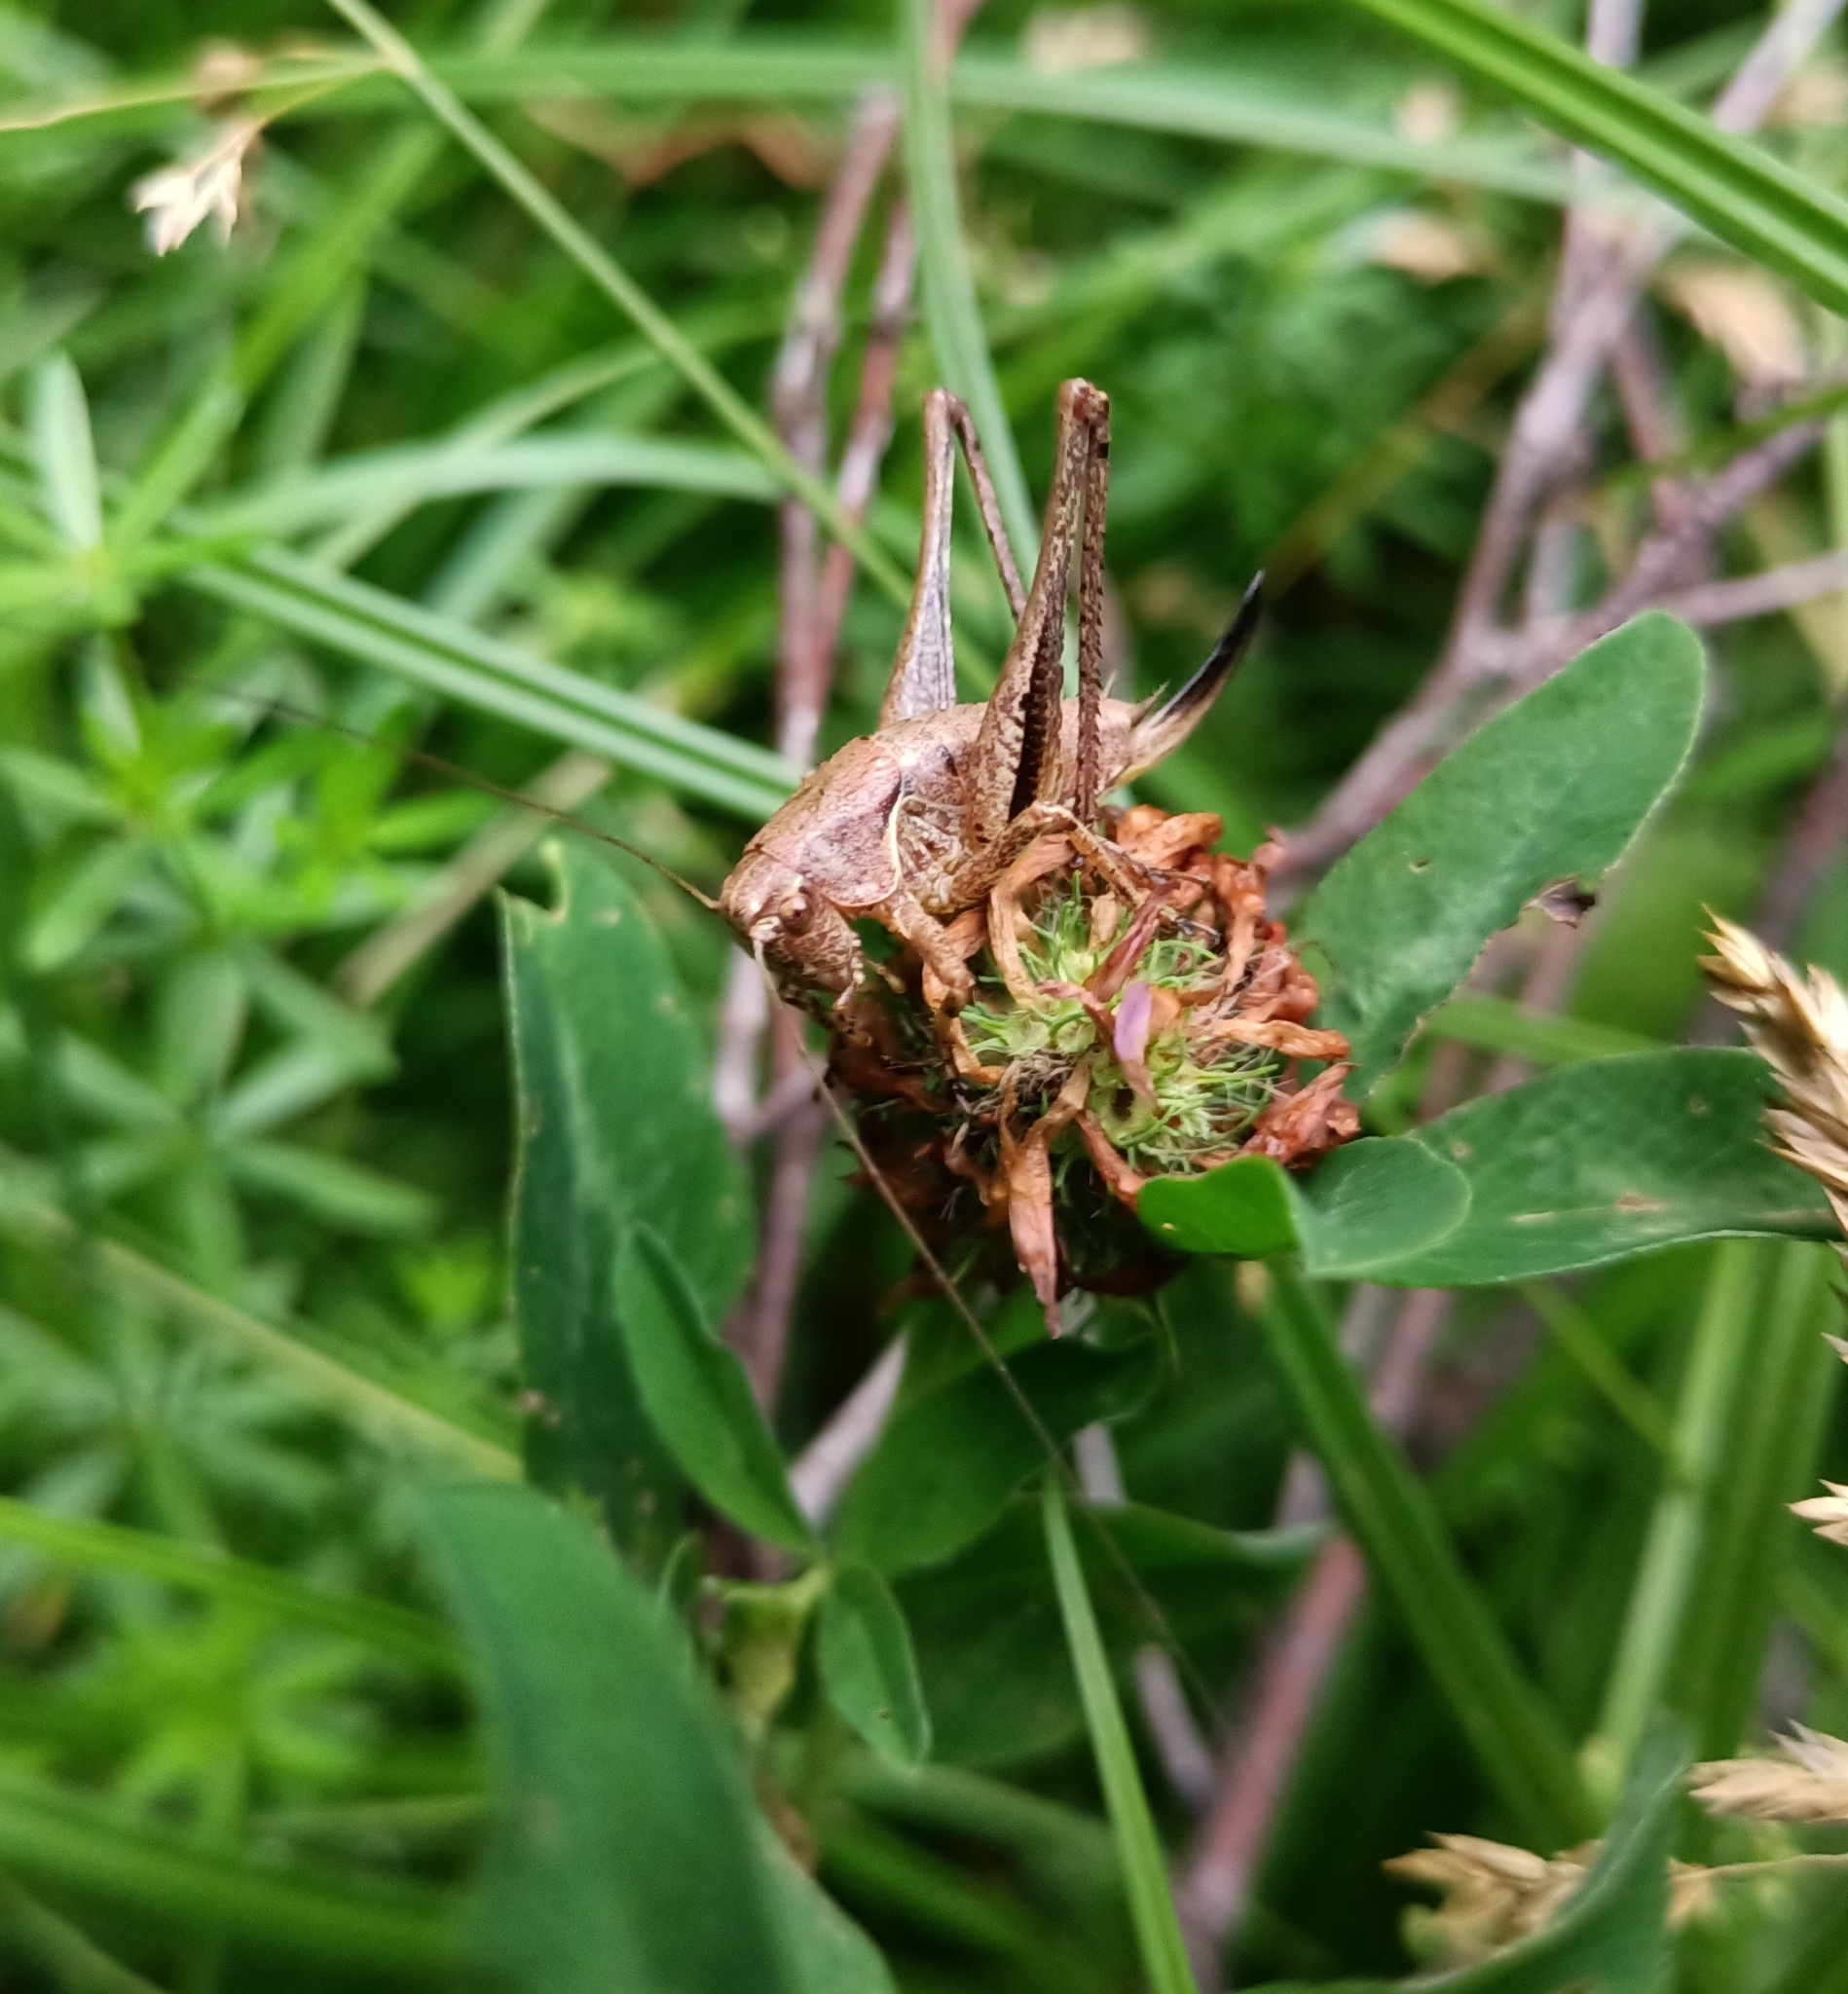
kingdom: Animalia
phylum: Arthropoda
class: Insecta
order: Orthoptera
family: Tettigoniidae
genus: Pholidoptera
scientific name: Pholidoptera griseoaptera
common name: Dark bush-cricket
